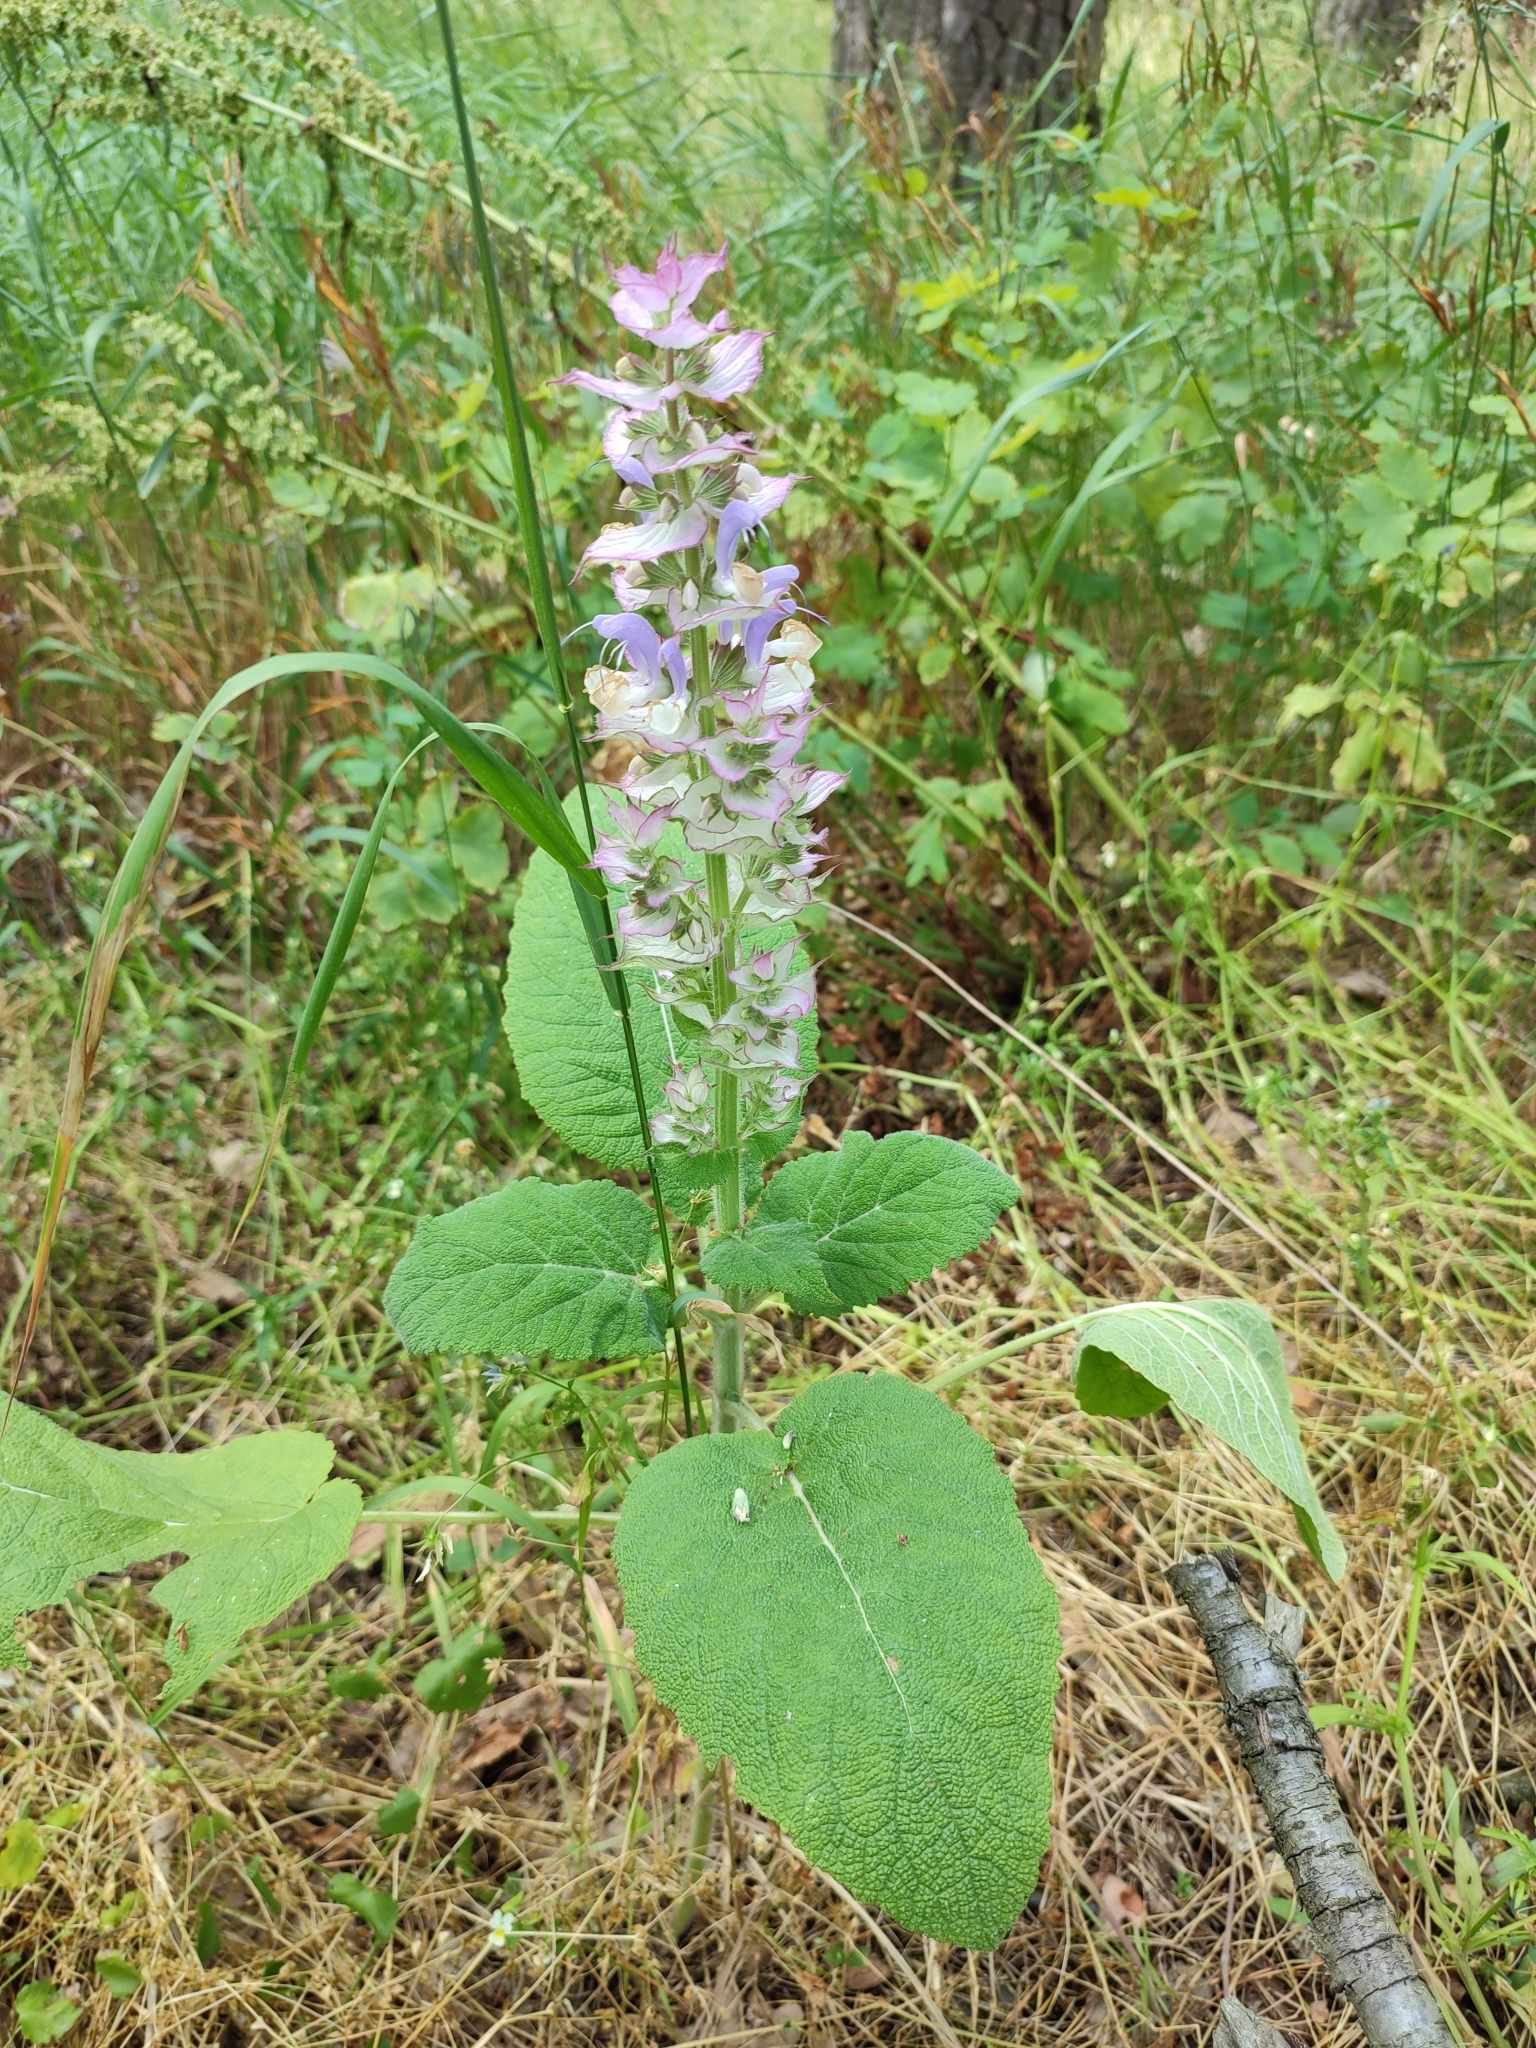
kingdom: Plantae
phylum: Tracheophyta
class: Magnoliopsida
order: Lamiales
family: Lamiaceae
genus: Salvia
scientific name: Salvia sclarea
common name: Clary
